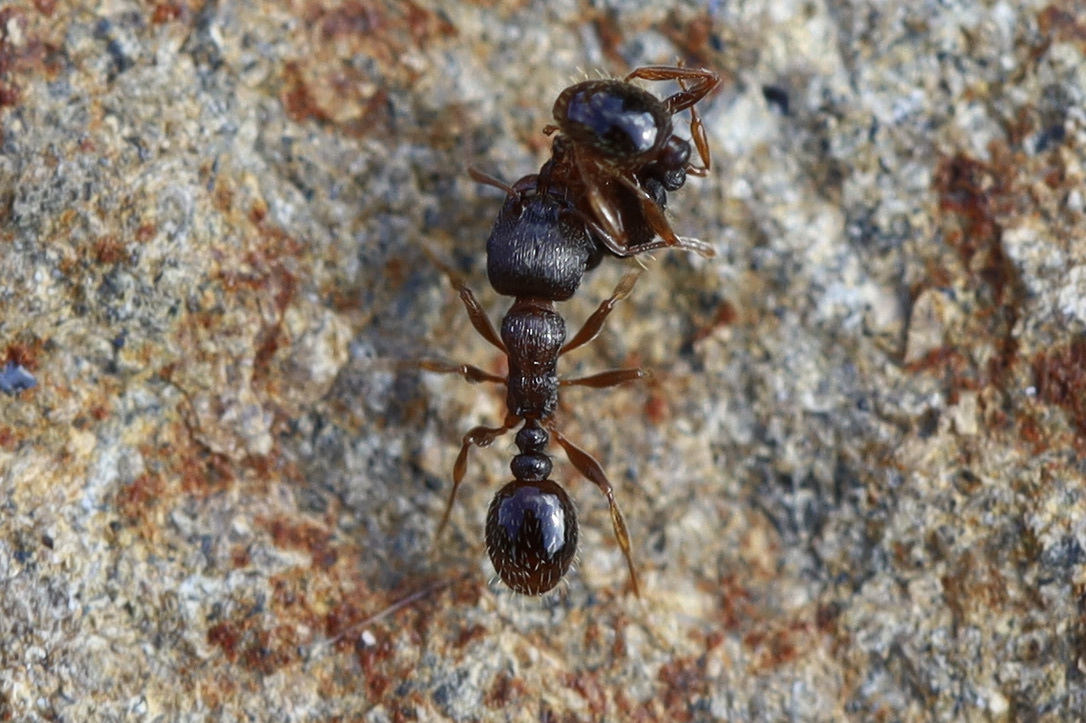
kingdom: Animalia
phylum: Arthropoda
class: Insecta
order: Hymenoptera
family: Formicidae
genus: Tetramorium
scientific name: Tetramorium immigrans
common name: Pavement ant
